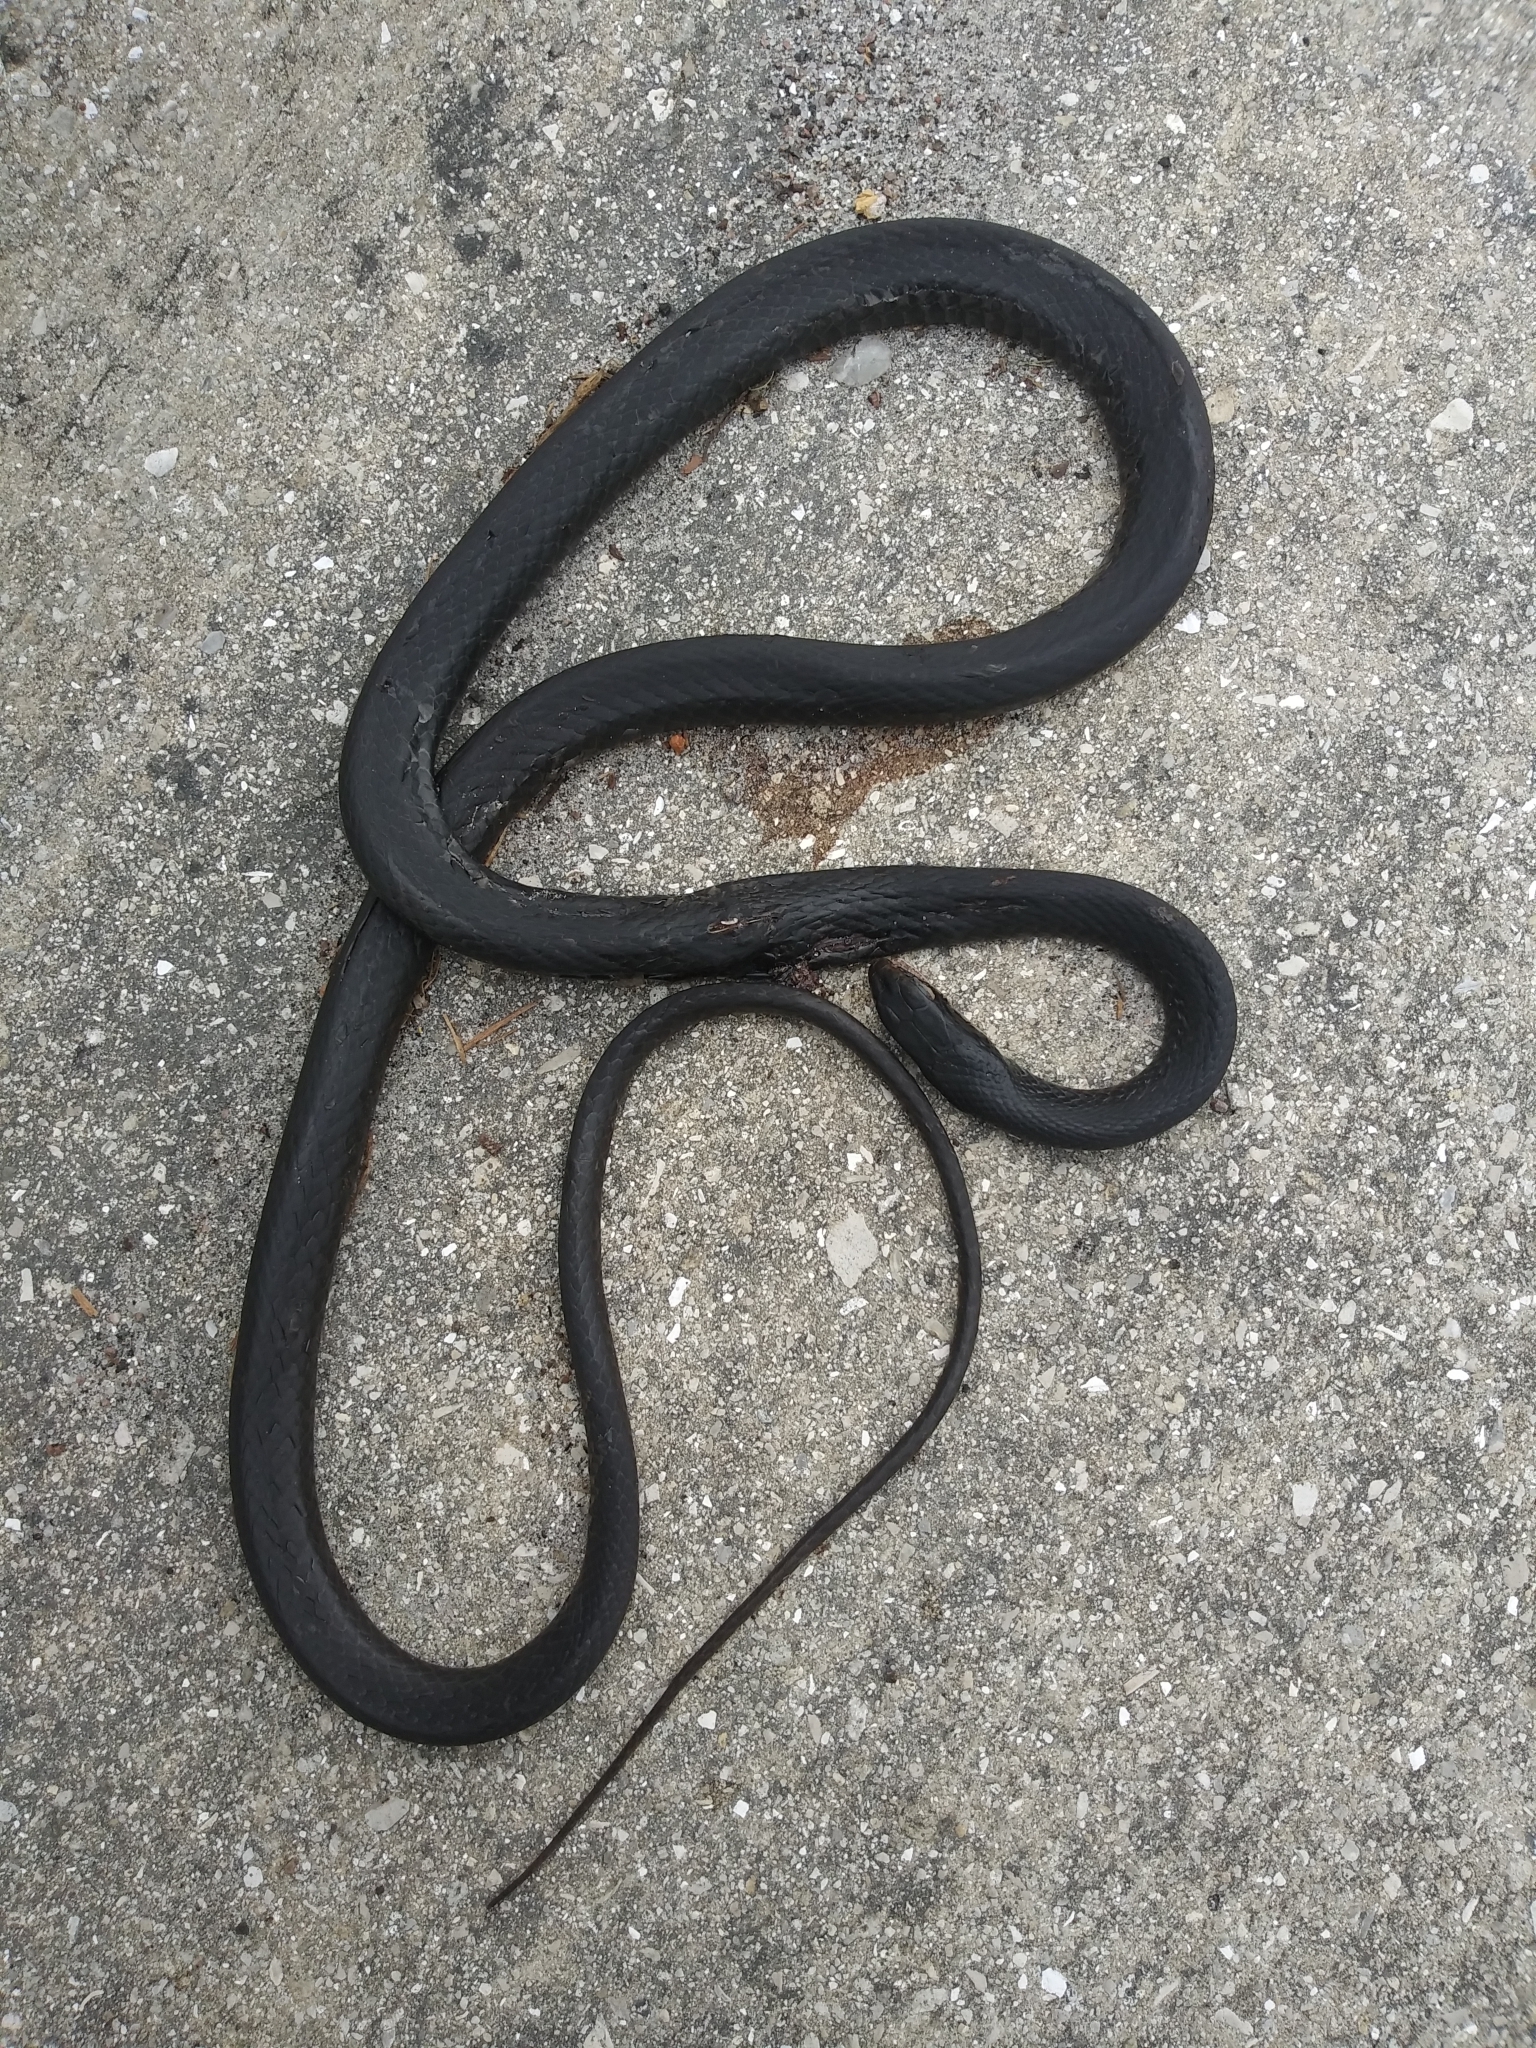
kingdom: Animalia
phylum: Chordata
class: Squamata
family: Colubridae
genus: Coluber
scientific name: Coluber constrictor
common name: Eastern racer
